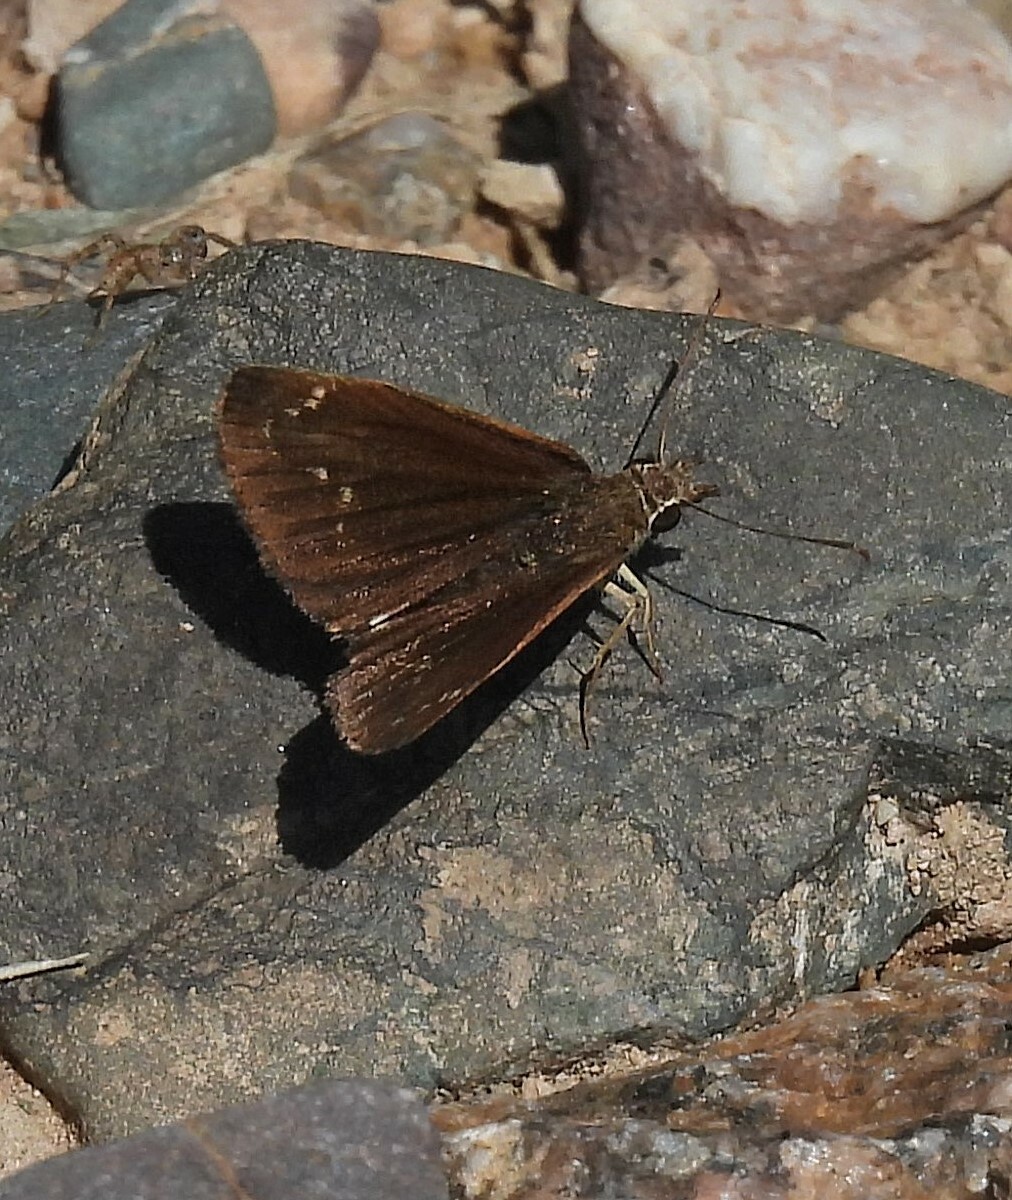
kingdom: Animalia
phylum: Arthropoda
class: Insecta
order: Lepidoptera
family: Hesperiidae
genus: Zopyrion
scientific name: Zopyrion evenor
